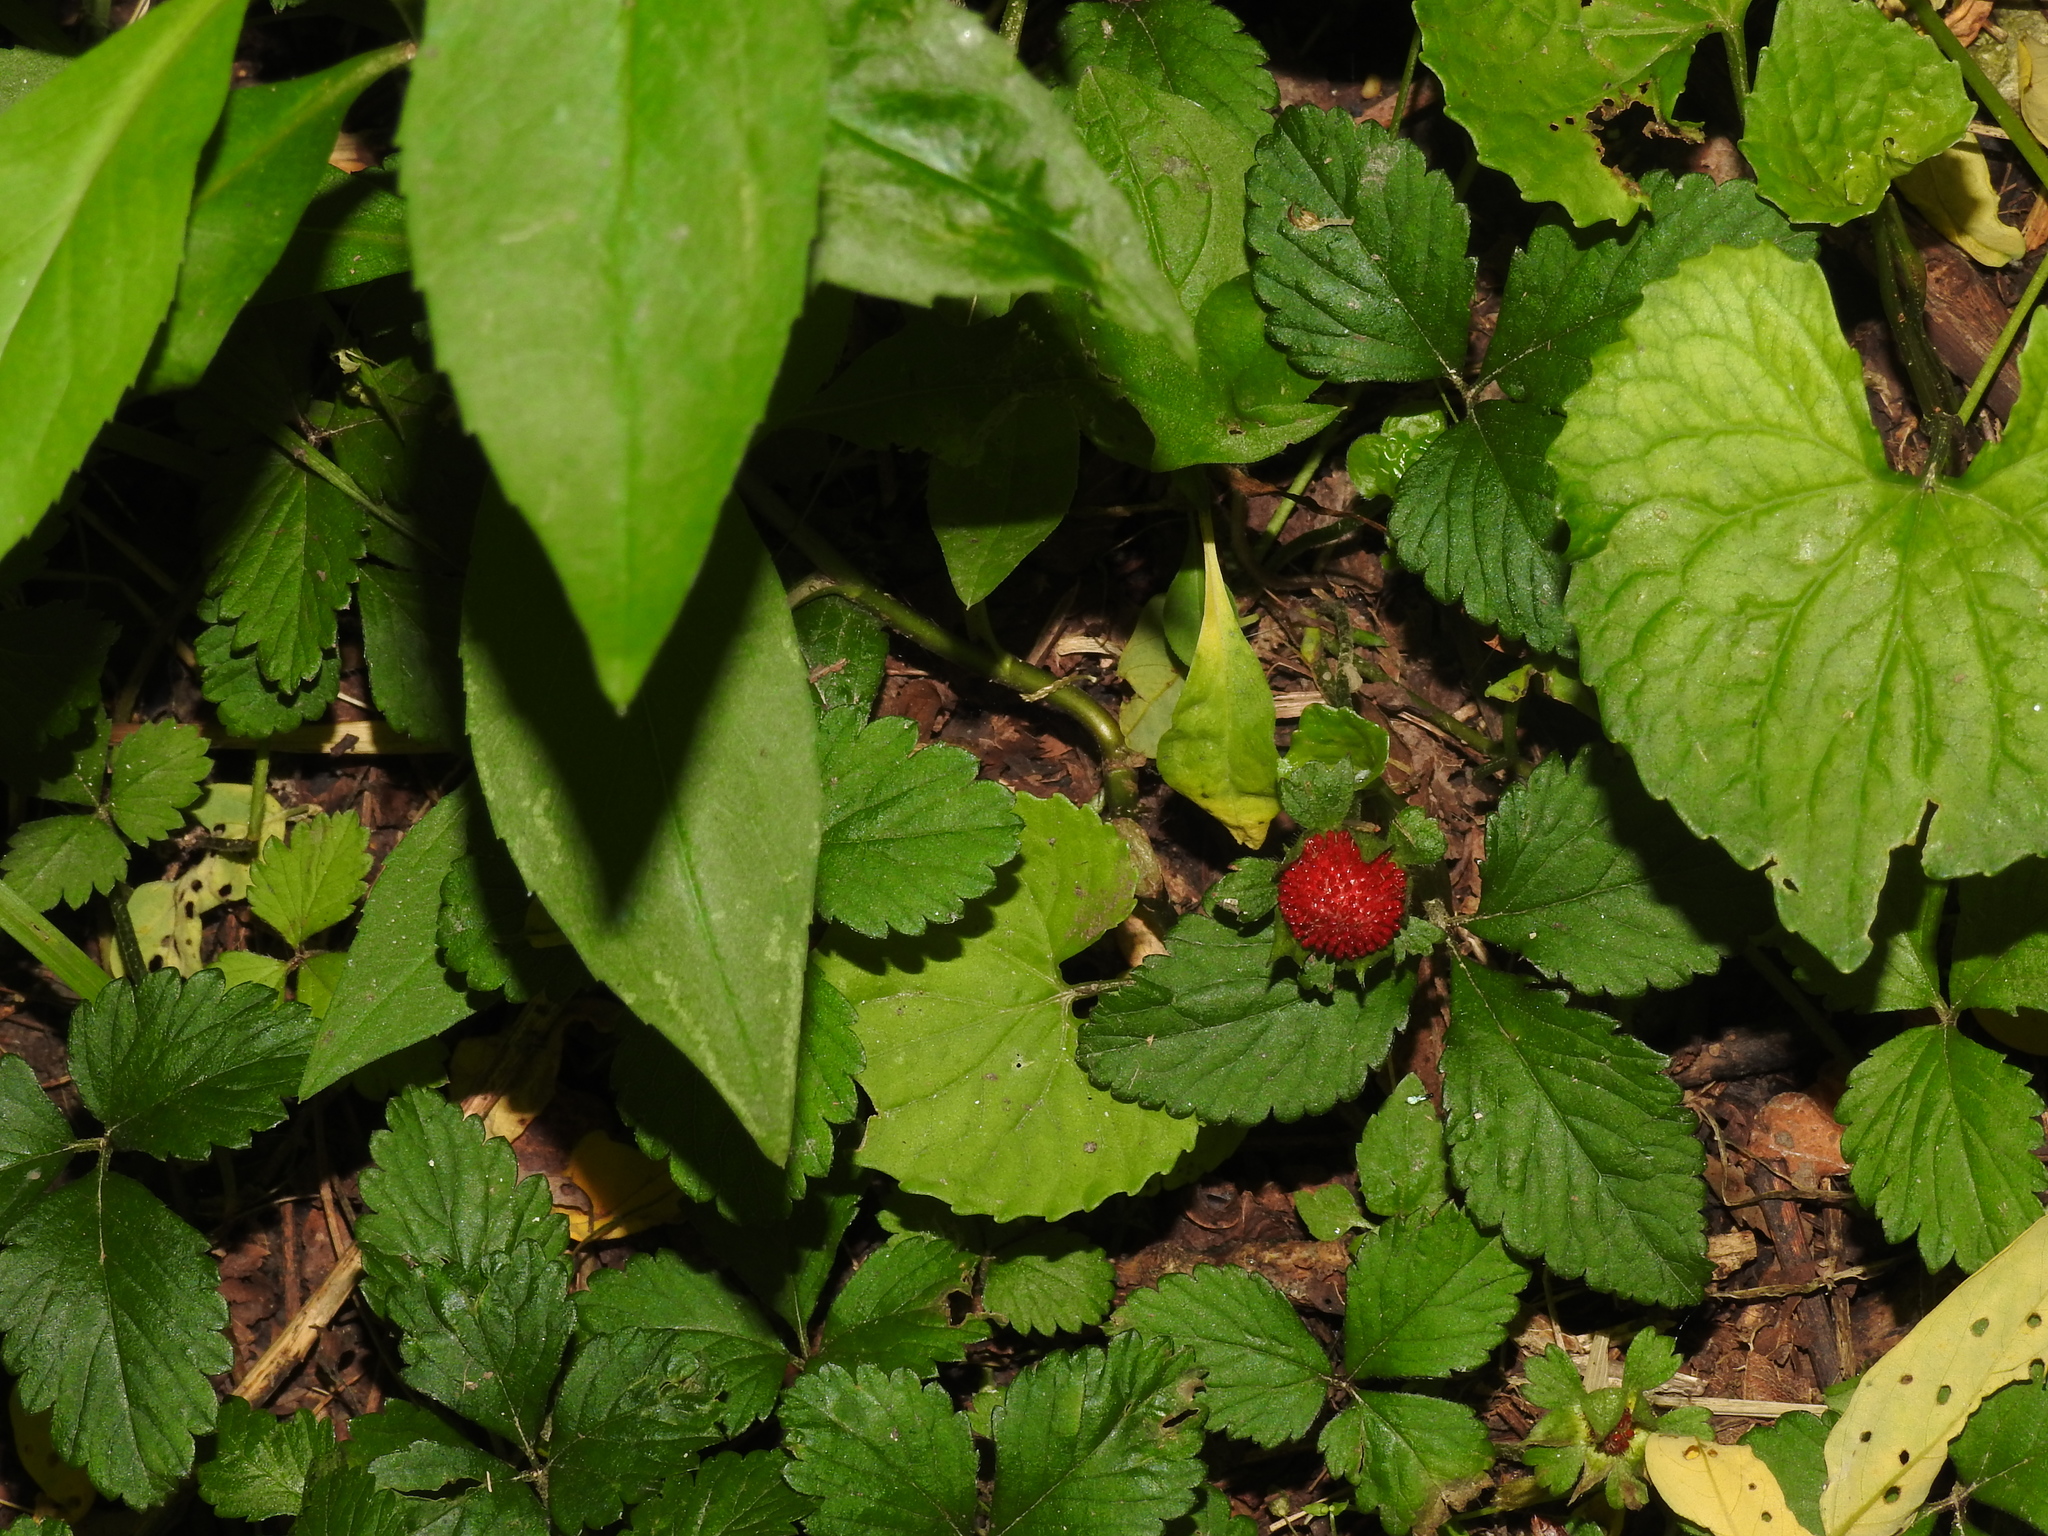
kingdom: Plantae
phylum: Tracheophyta
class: Magnoliopsida
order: Rosales
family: Rosaceae
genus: Potentilla
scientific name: Potentilla indica
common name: Yellow-flowered strawberry
